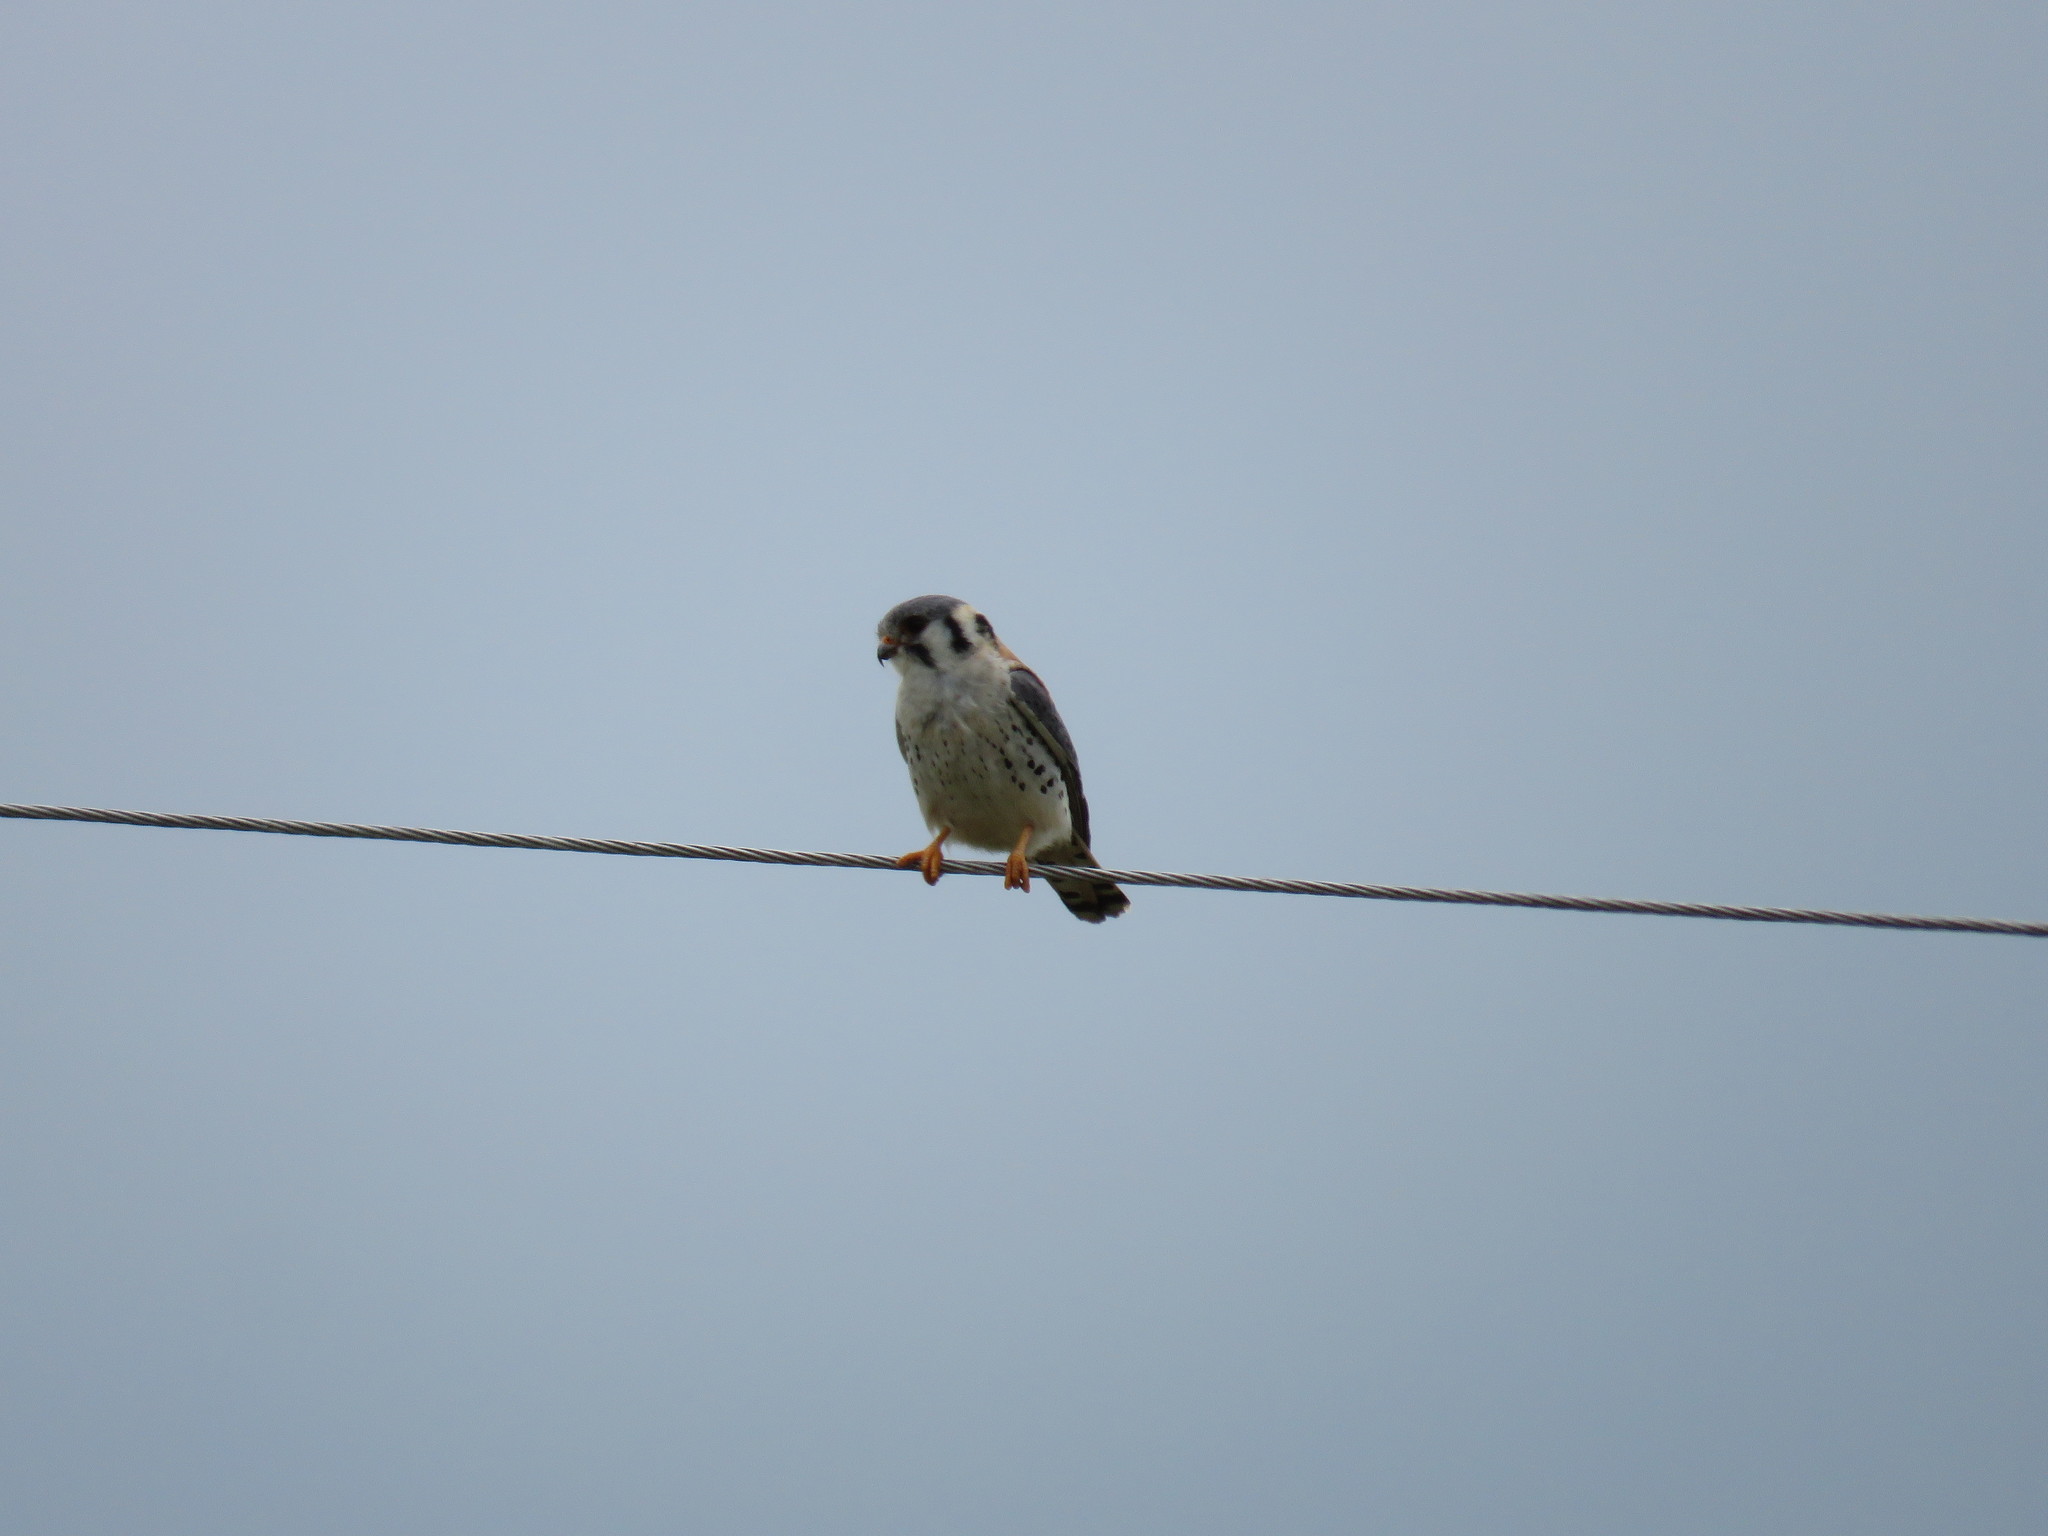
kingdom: Animalia
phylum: Chordata
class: Aves
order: Falconiformes
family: Falconidae
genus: Falco
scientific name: Falco sparverius
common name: American kestrel
